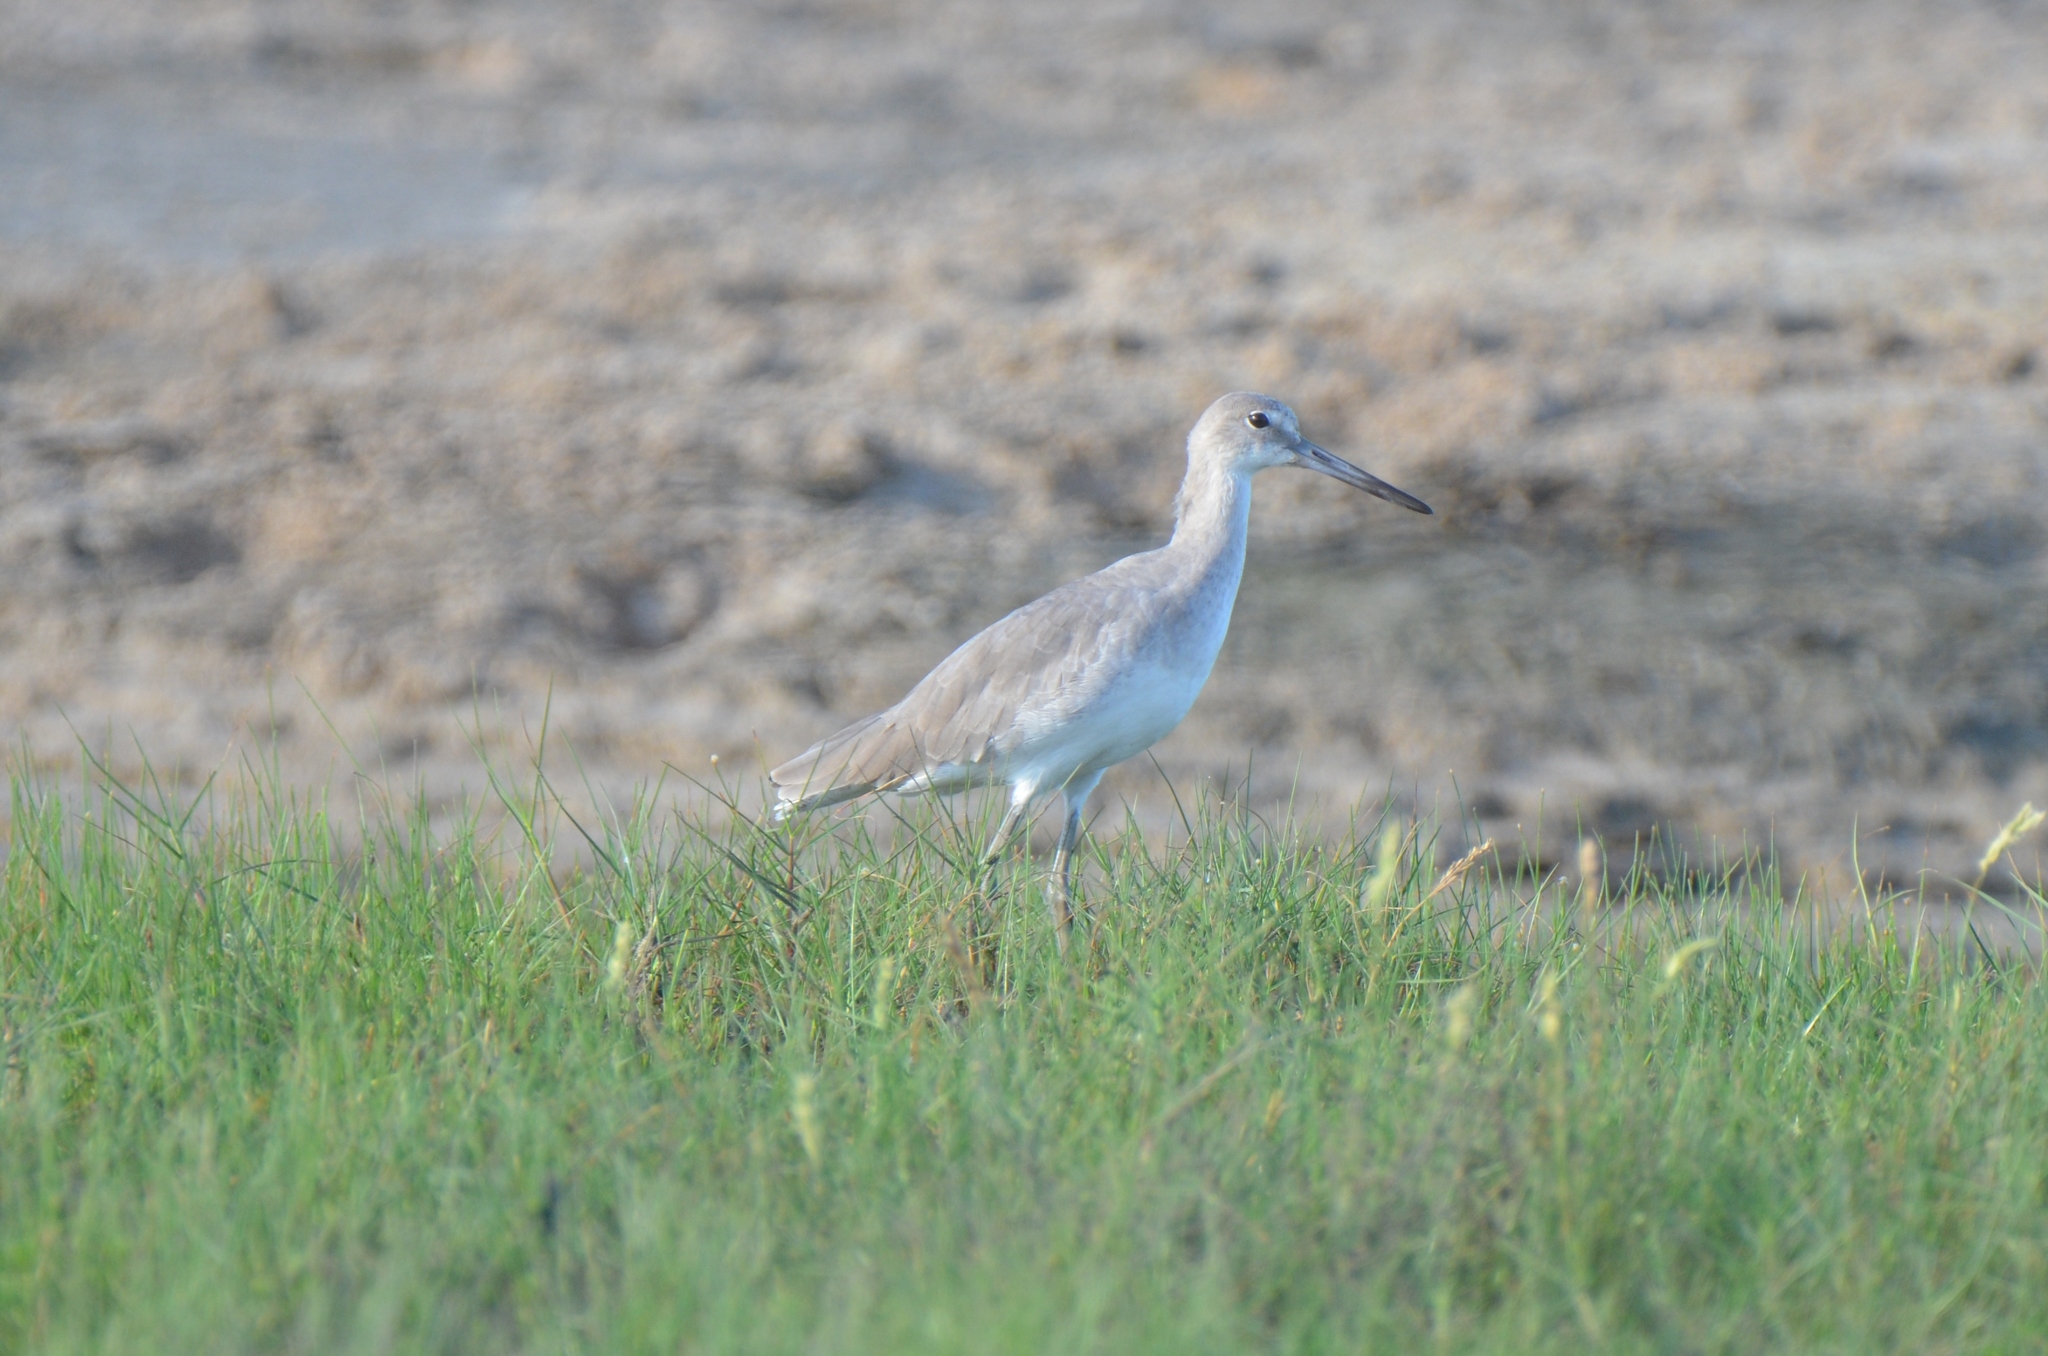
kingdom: Animalia
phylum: Chordata
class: Aves
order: Charadriiformes
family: Scolopacidae
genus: Tringa
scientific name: Tringa semipalmata
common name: Willet
